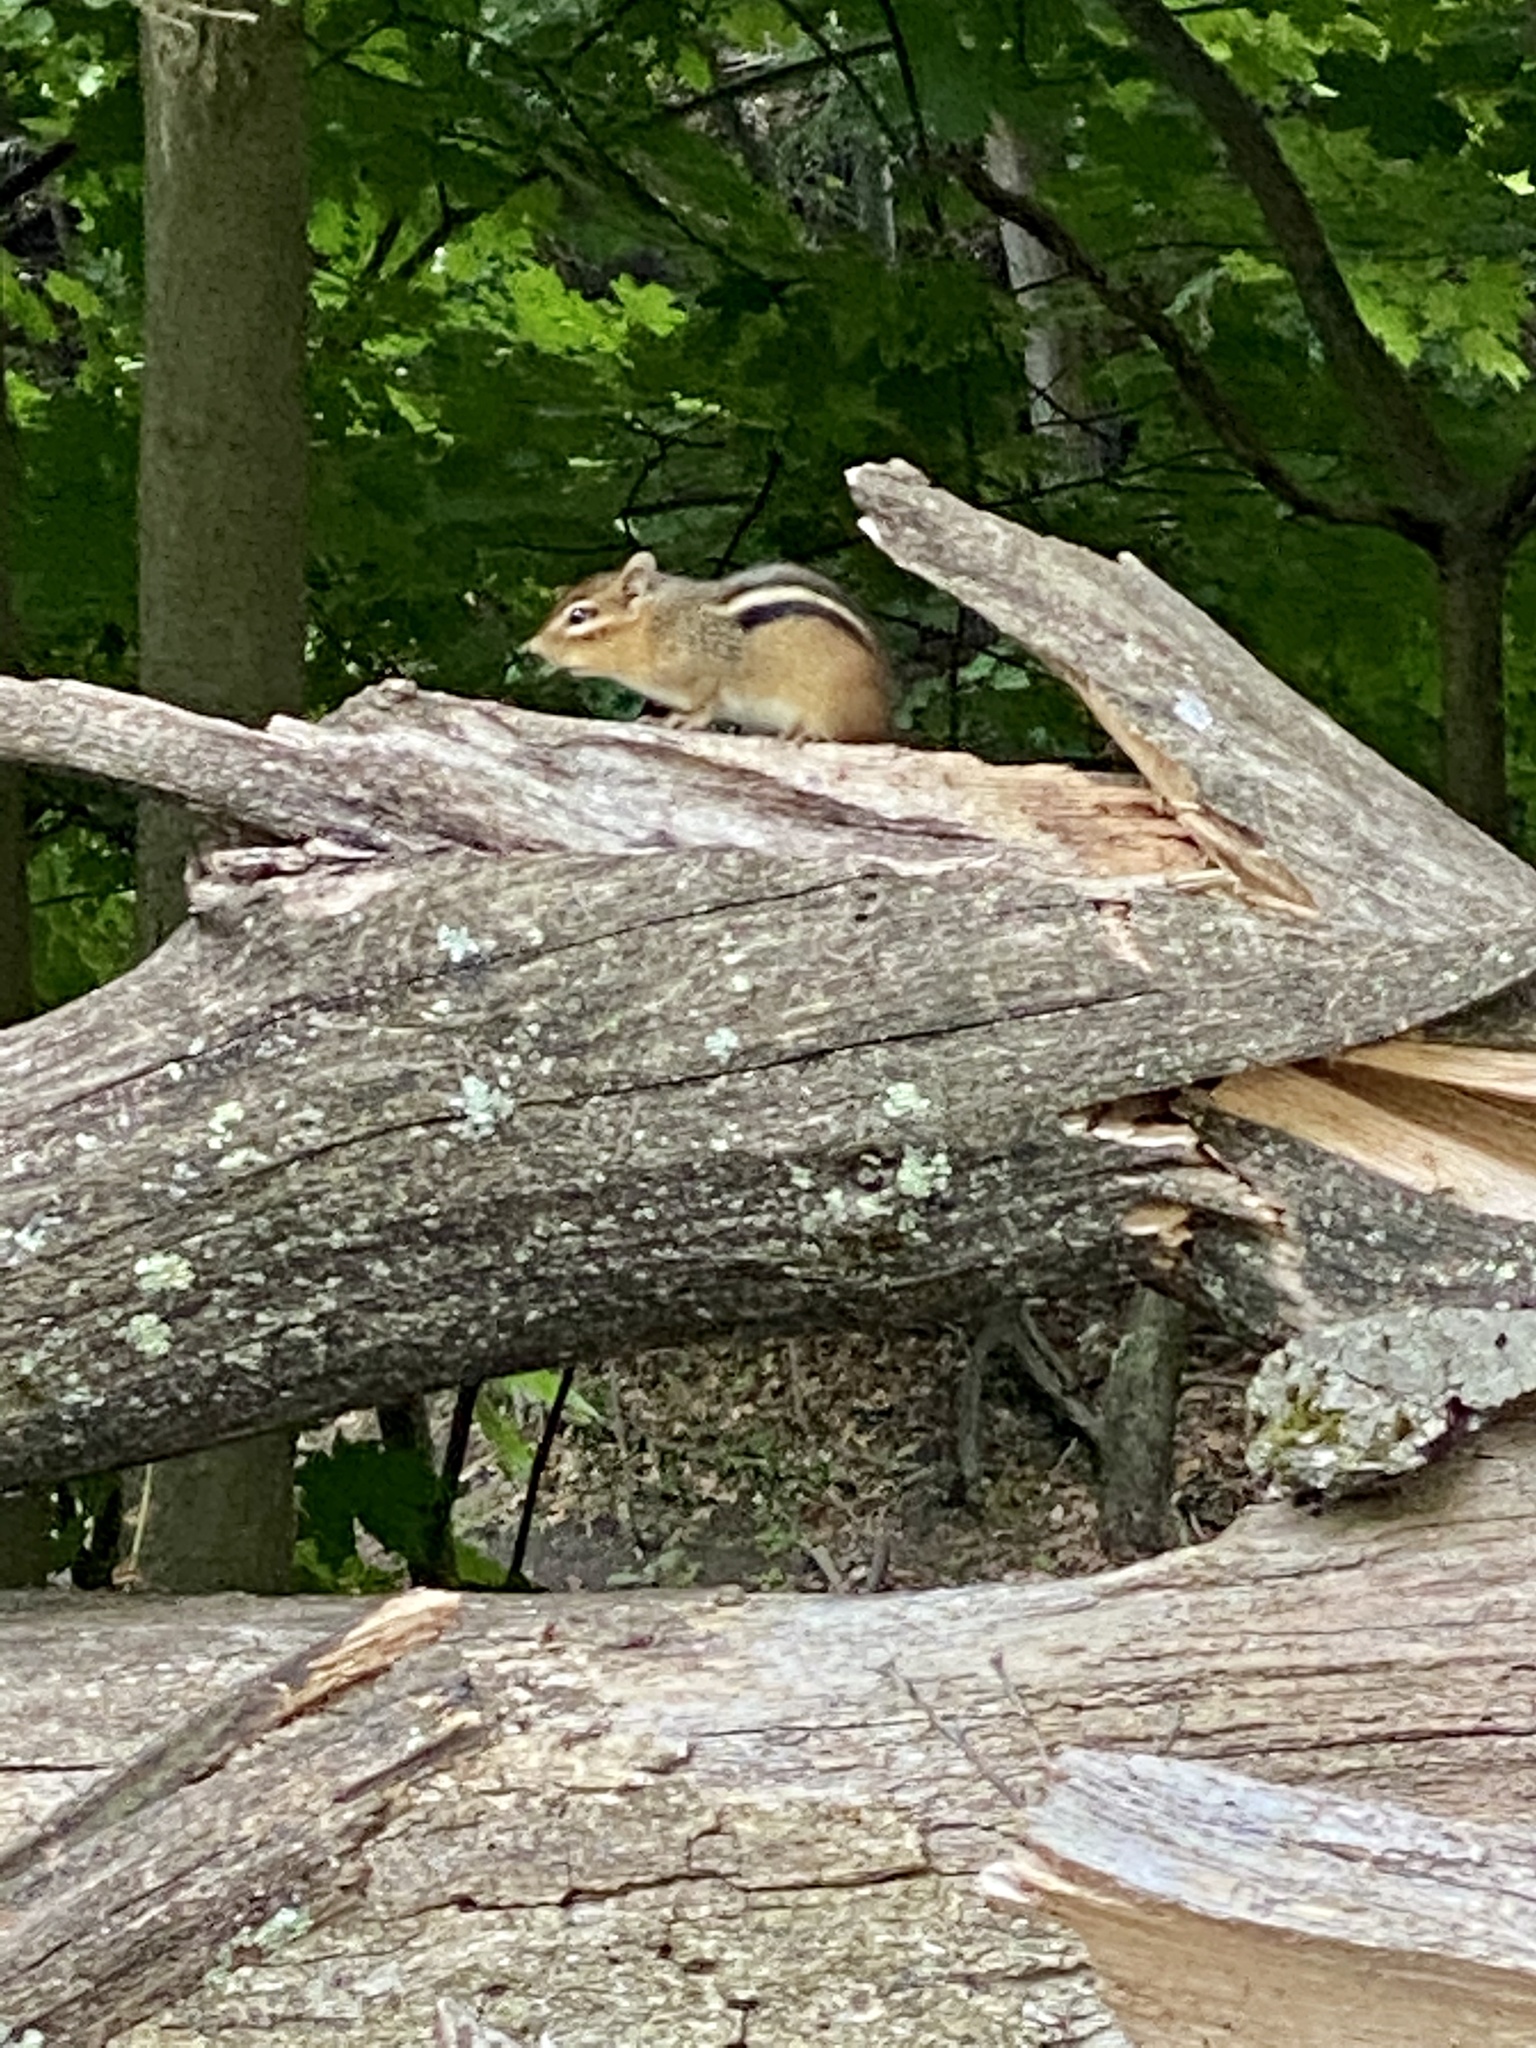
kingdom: Animalia
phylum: Chordata
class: Mammalia
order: Rodentia
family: Sciuridae
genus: Tamias
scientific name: Tamias striatus
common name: Eastern chipmunk
